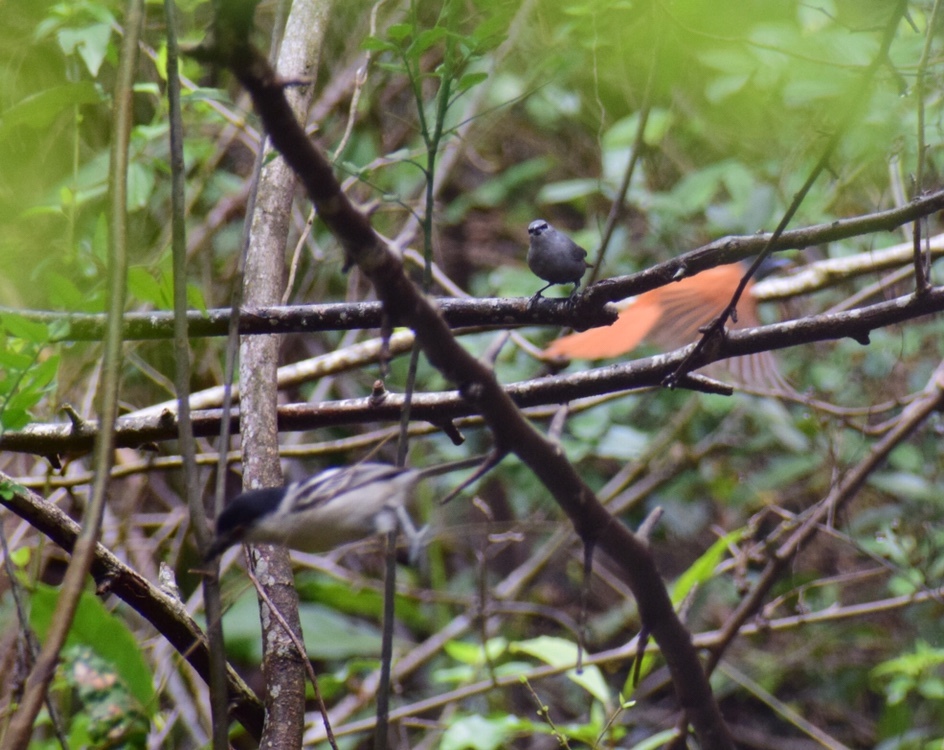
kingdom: Animalia
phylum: Chordata
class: Aves
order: Passeriformes
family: Estrildidae
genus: Estrilda
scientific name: Estrilda perreini
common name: Grey waxbill
